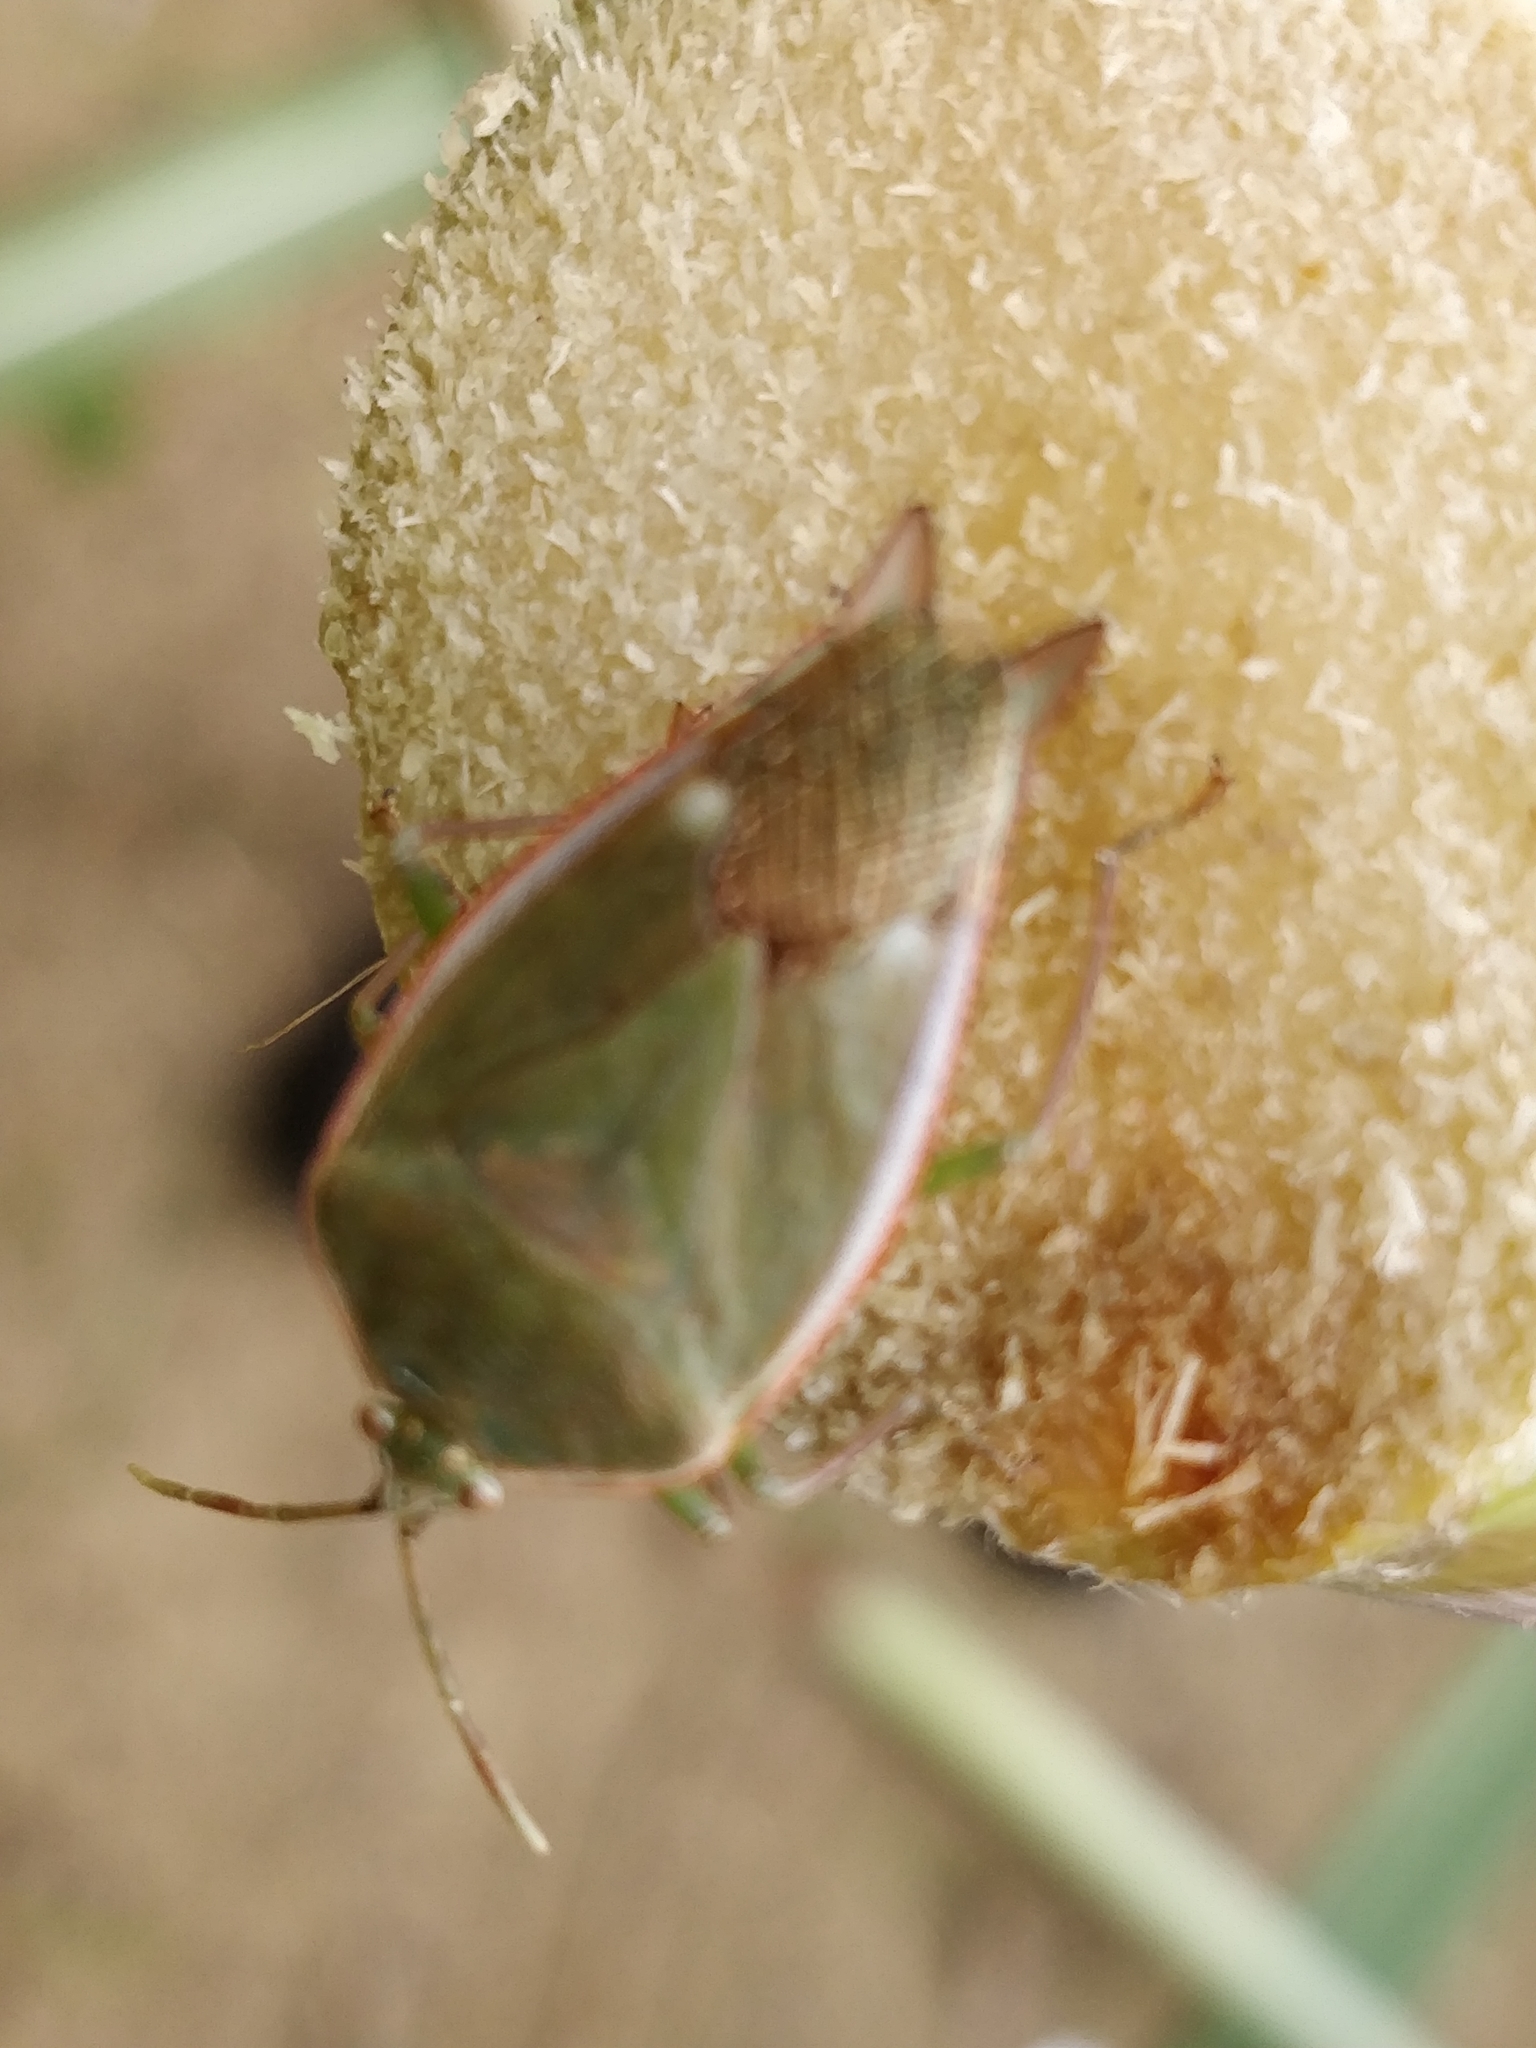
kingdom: Animalia
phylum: Arthropoda
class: Insecta
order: Hemiptera
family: Tessaratomidae
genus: Lyramorpha
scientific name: Lyramorpha rosea
